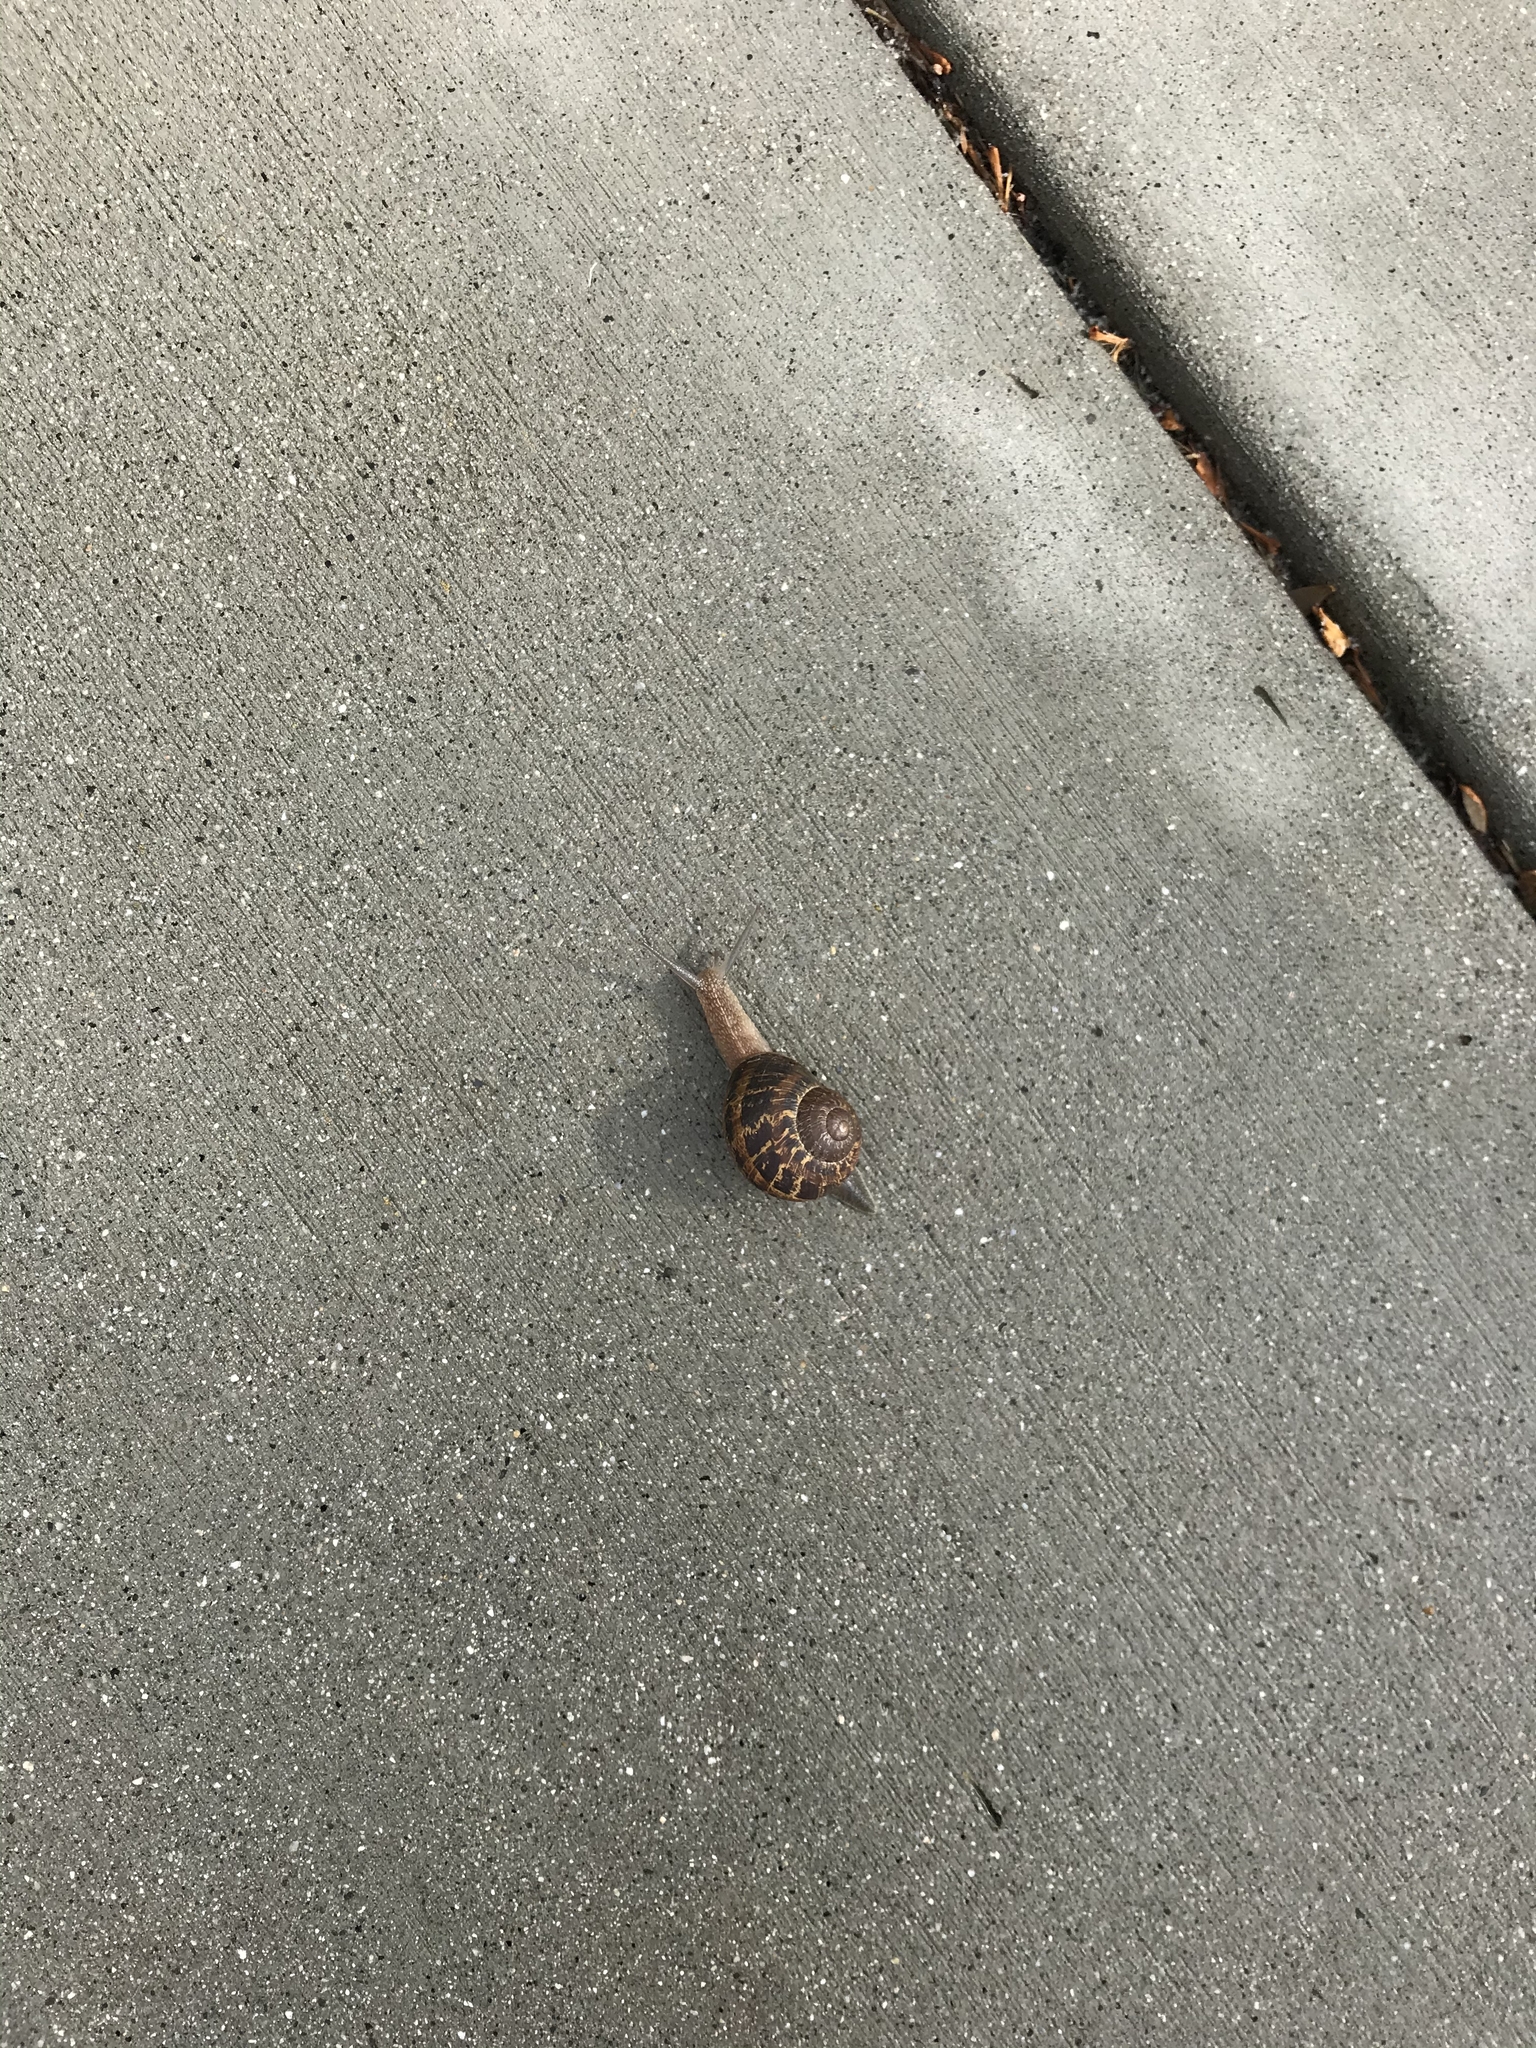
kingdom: Animalia
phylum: Mollusca
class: Gastropoda
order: Stylommatophora
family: Helicidae
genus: Cornu
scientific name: Cornu aspersum
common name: Brown garden snail
